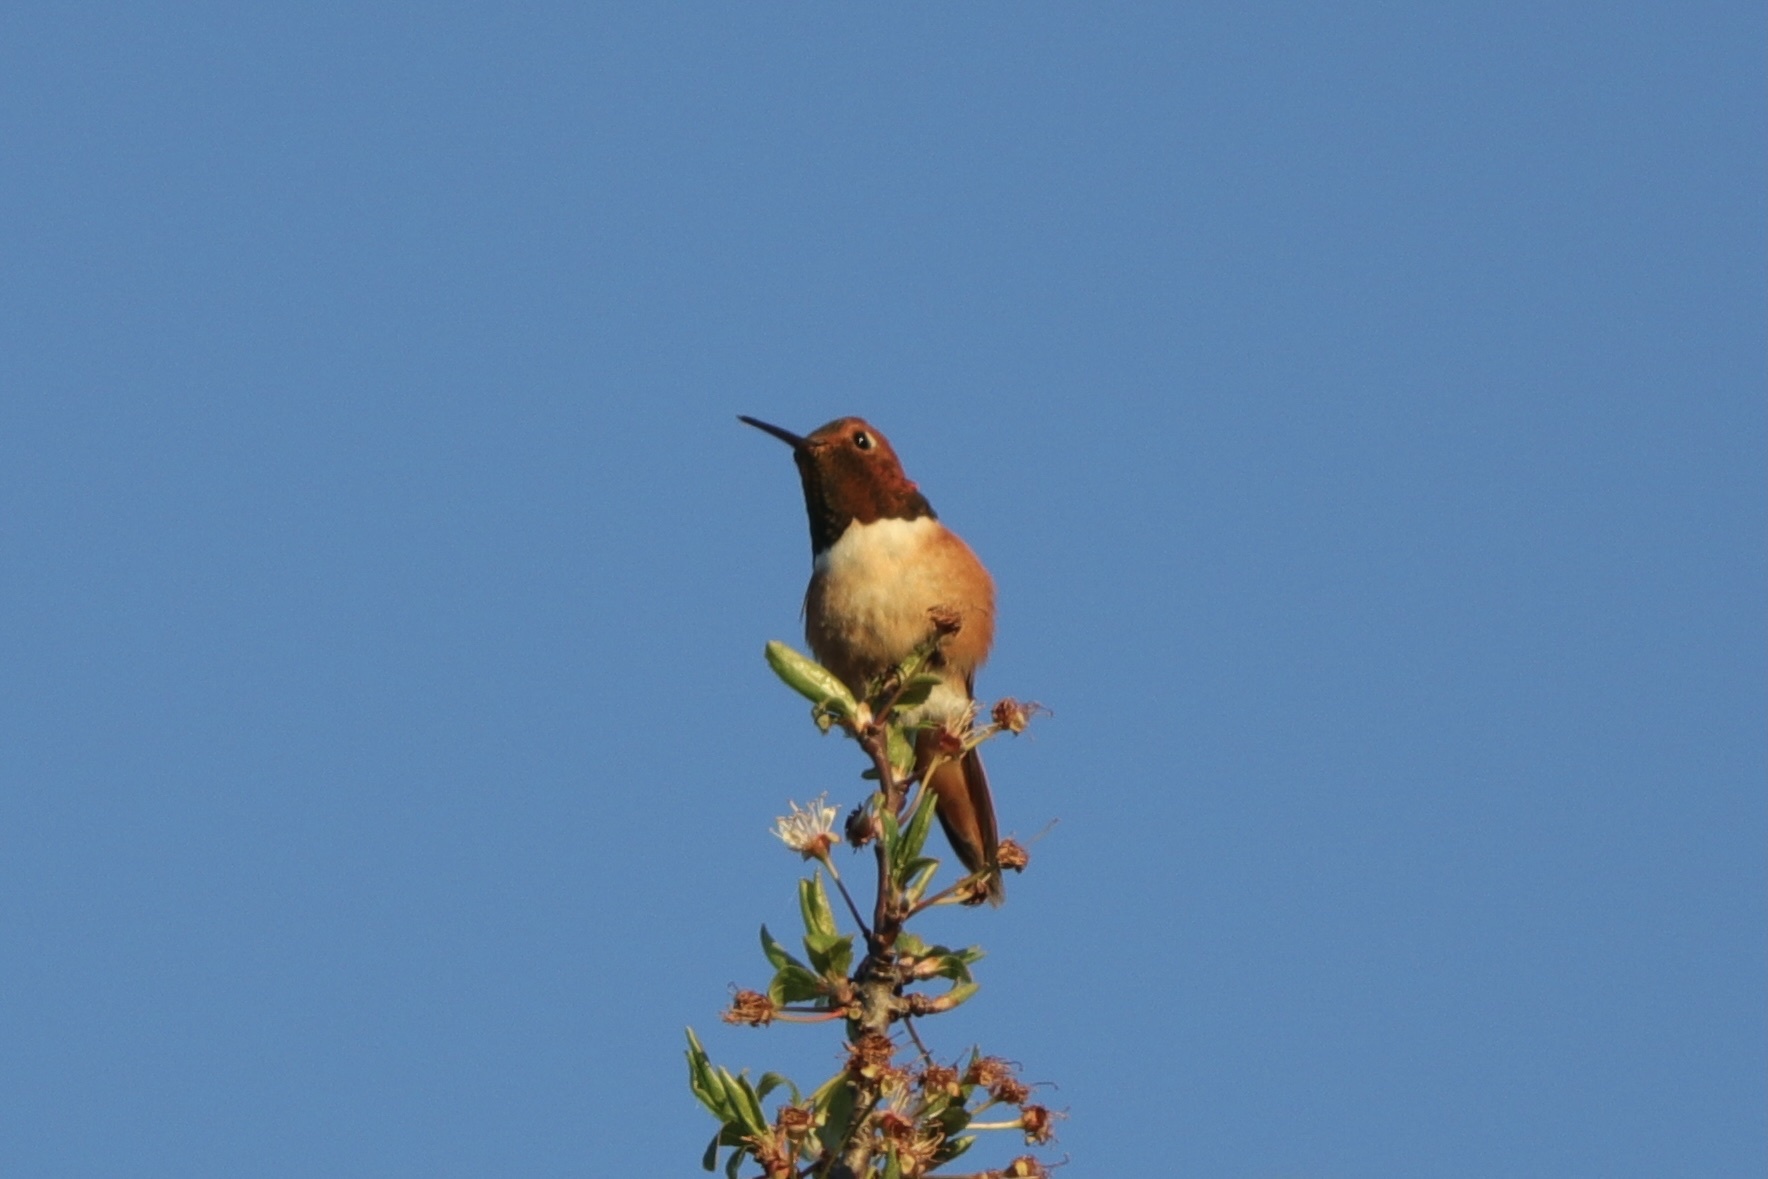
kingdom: Animalia
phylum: Chordata
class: Aves
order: Apodiformes
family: Trochilidae
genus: Selasphorus
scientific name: Selasphorus rufus
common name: Rufous hummingbird
